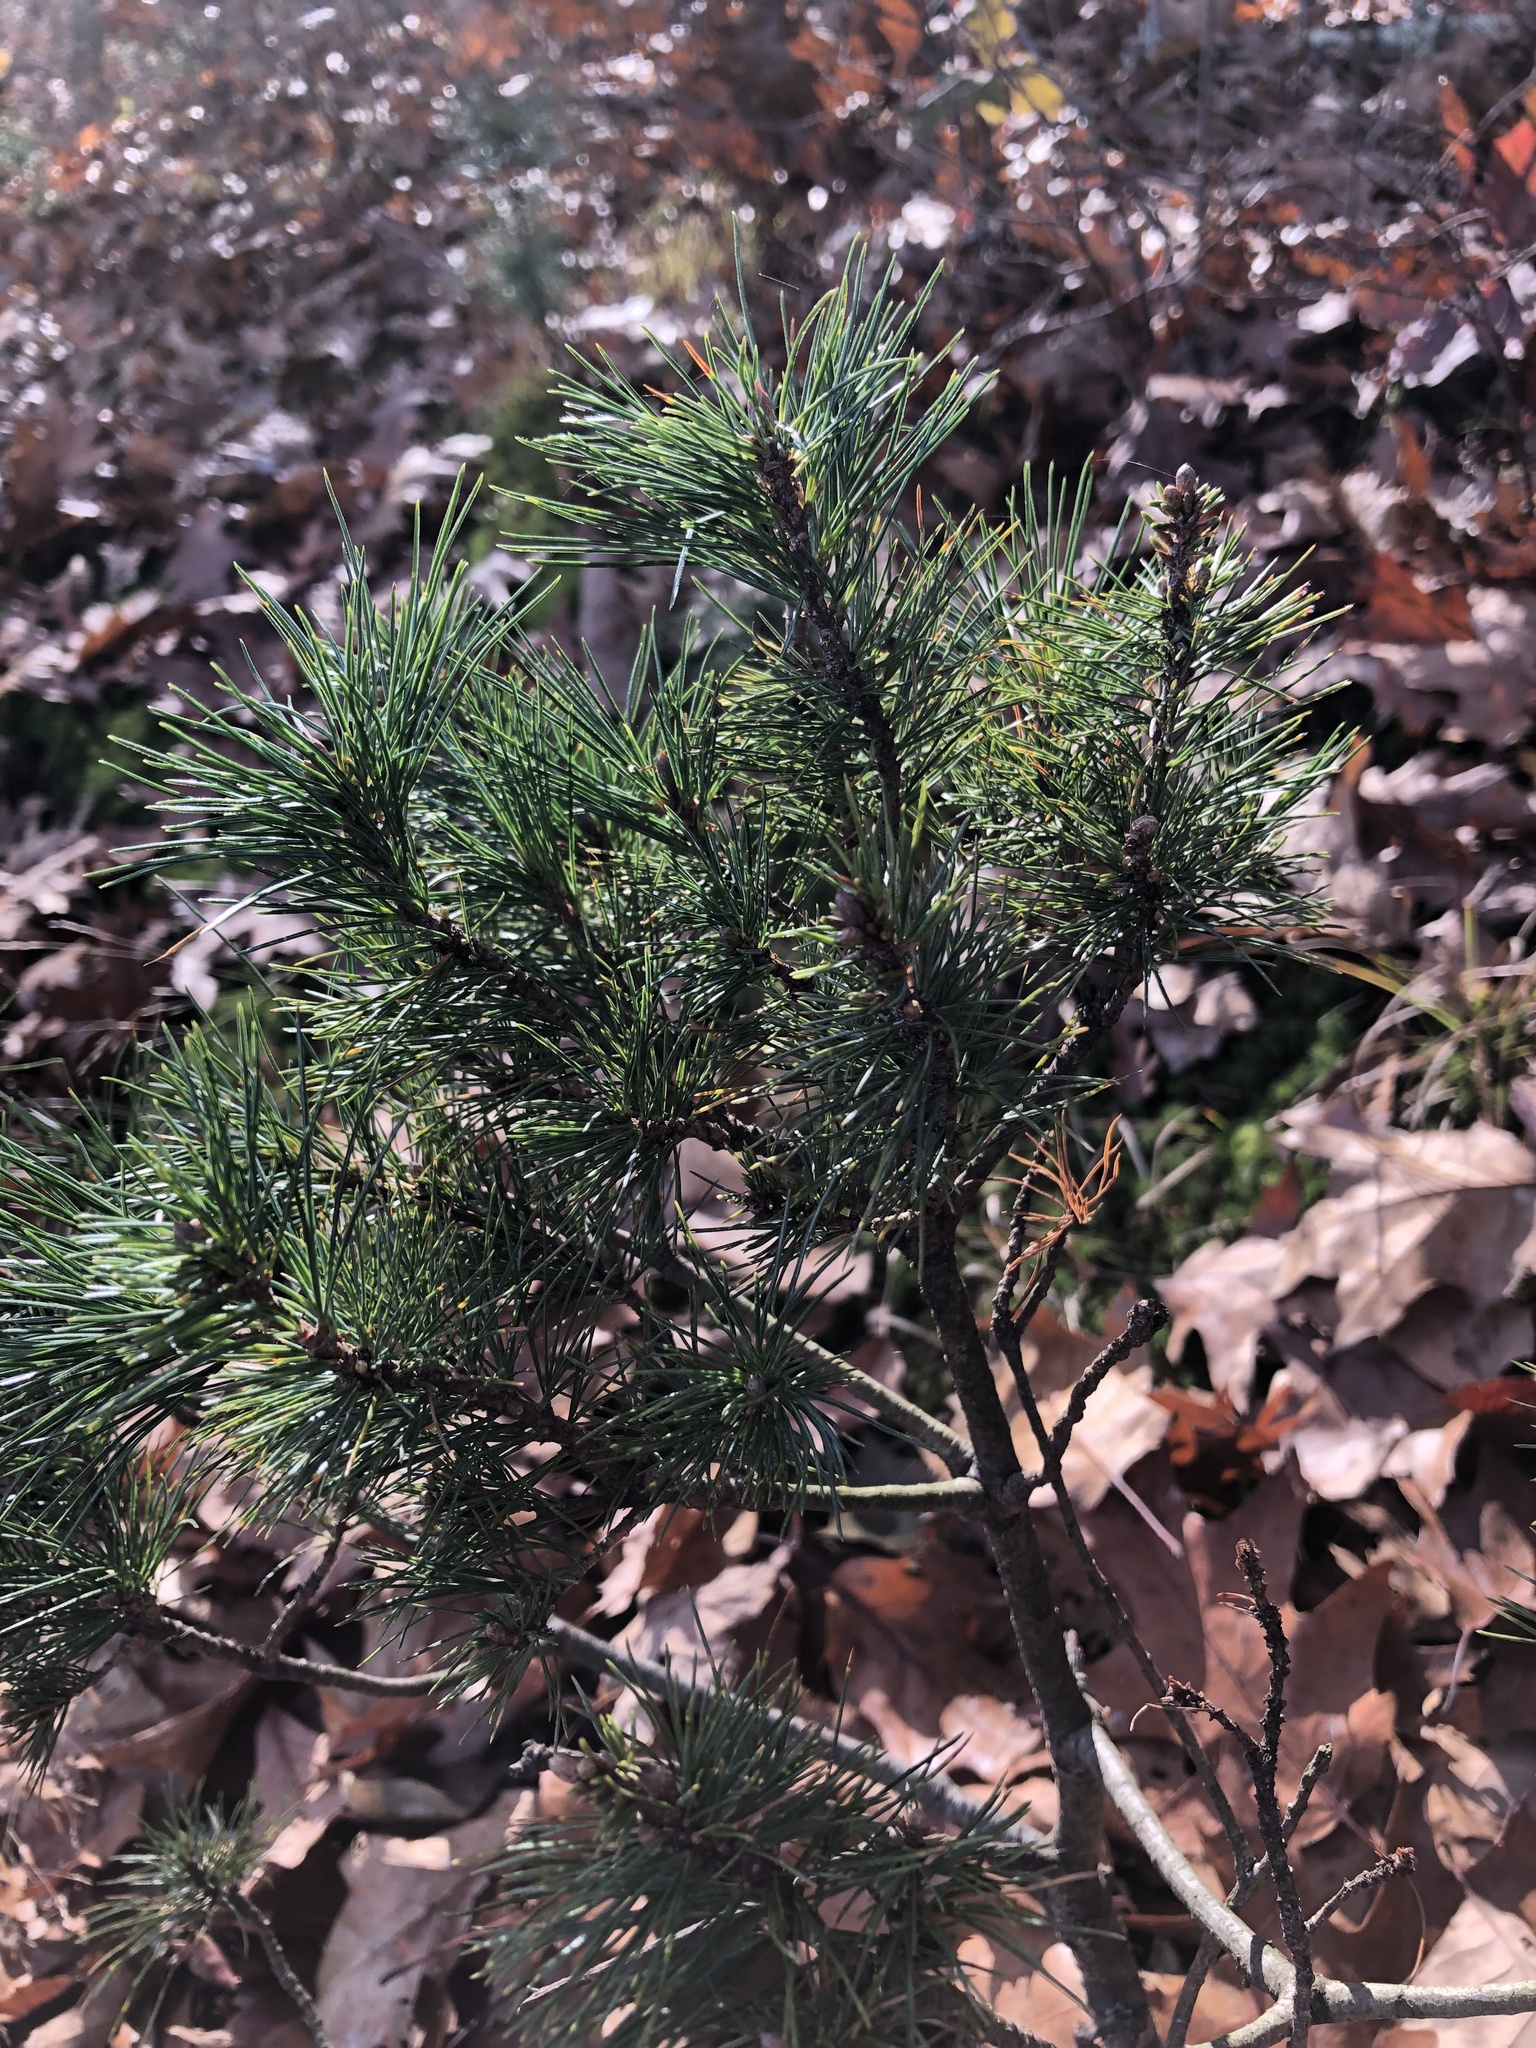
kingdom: Plantae
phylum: Tracheophyta
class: Pinopsida
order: Pinales
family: Pinaceae
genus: Pinus
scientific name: Pinus rigida
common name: Pitch pine
